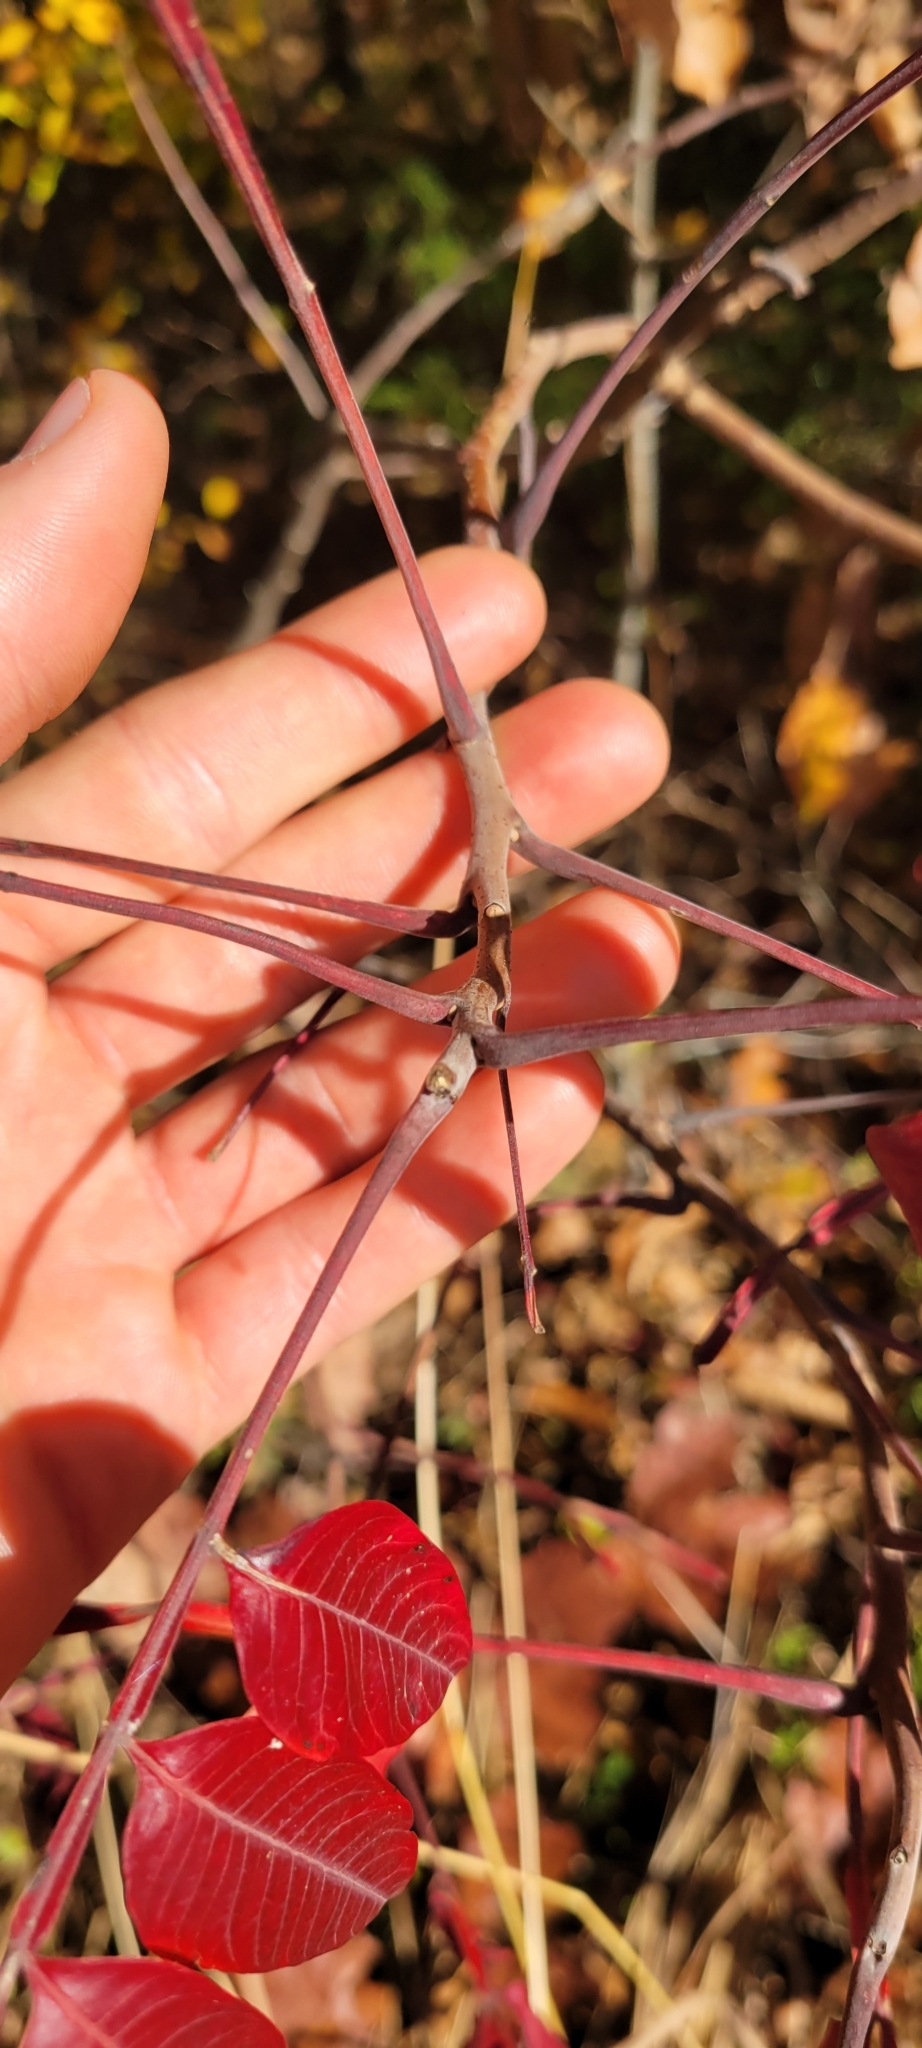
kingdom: Plantae
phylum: Tracheophyta
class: Magnoliopsida
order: Sapindales
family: Anacardiaceae
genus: Rhus
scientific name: Rhus copallina
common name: Shining sumac
